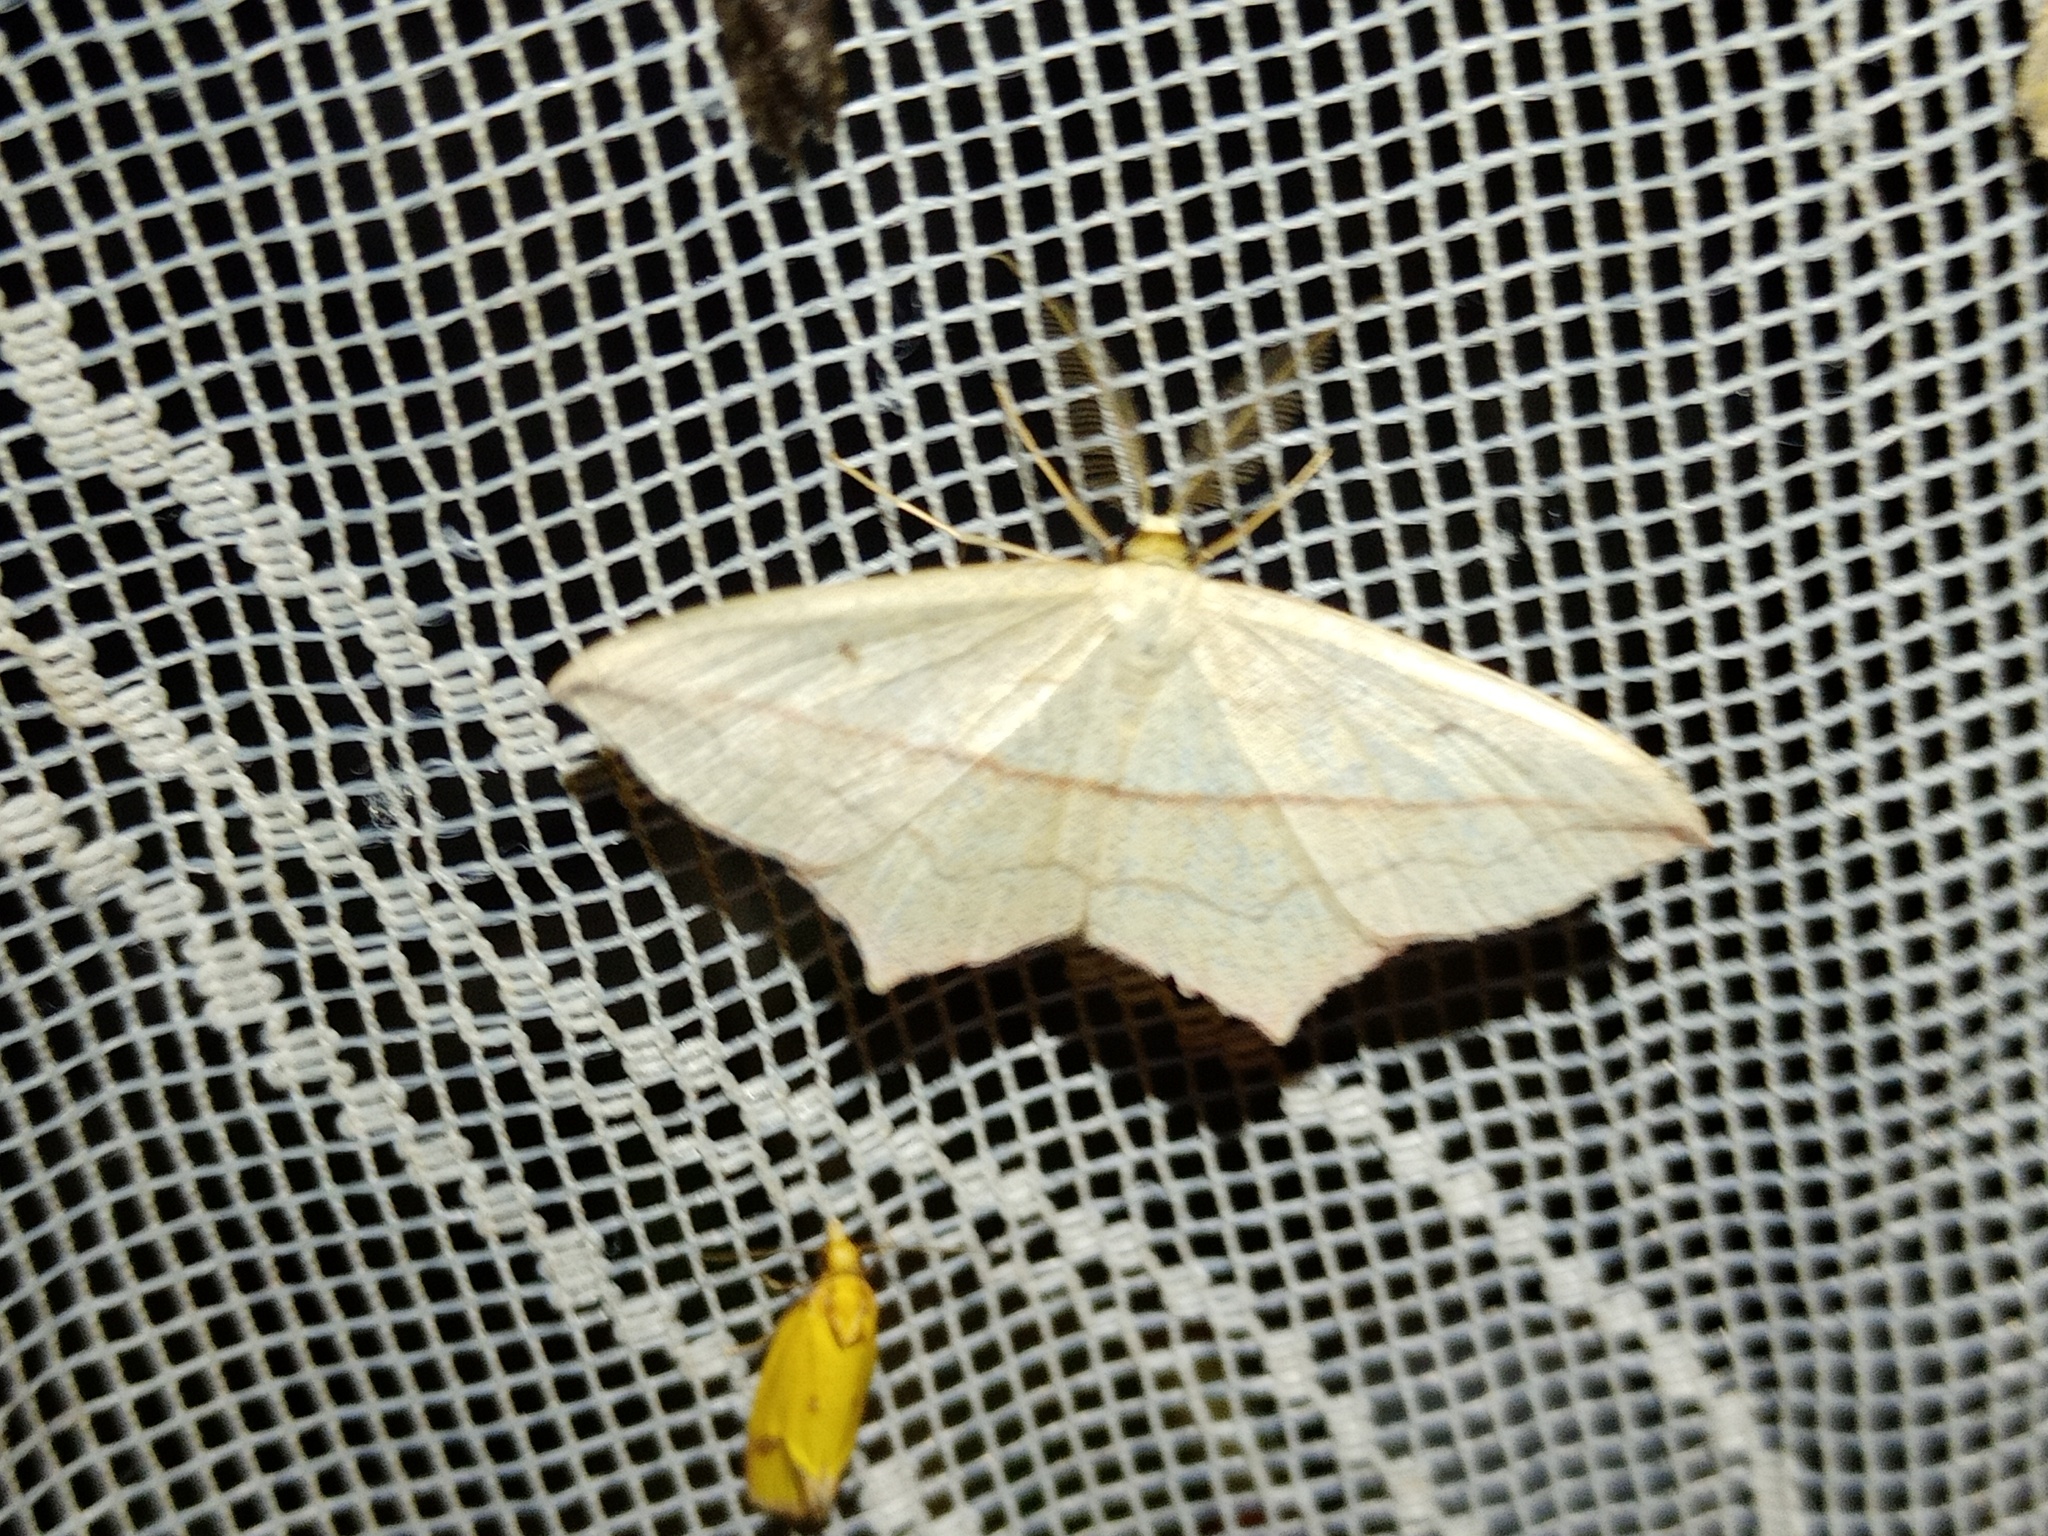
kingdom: Animalia
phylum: Arthropoda
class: Insecta
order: Lepidoptera
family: Geometridae
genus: Timandra
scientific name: Timandra comae
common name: Blood-vein
